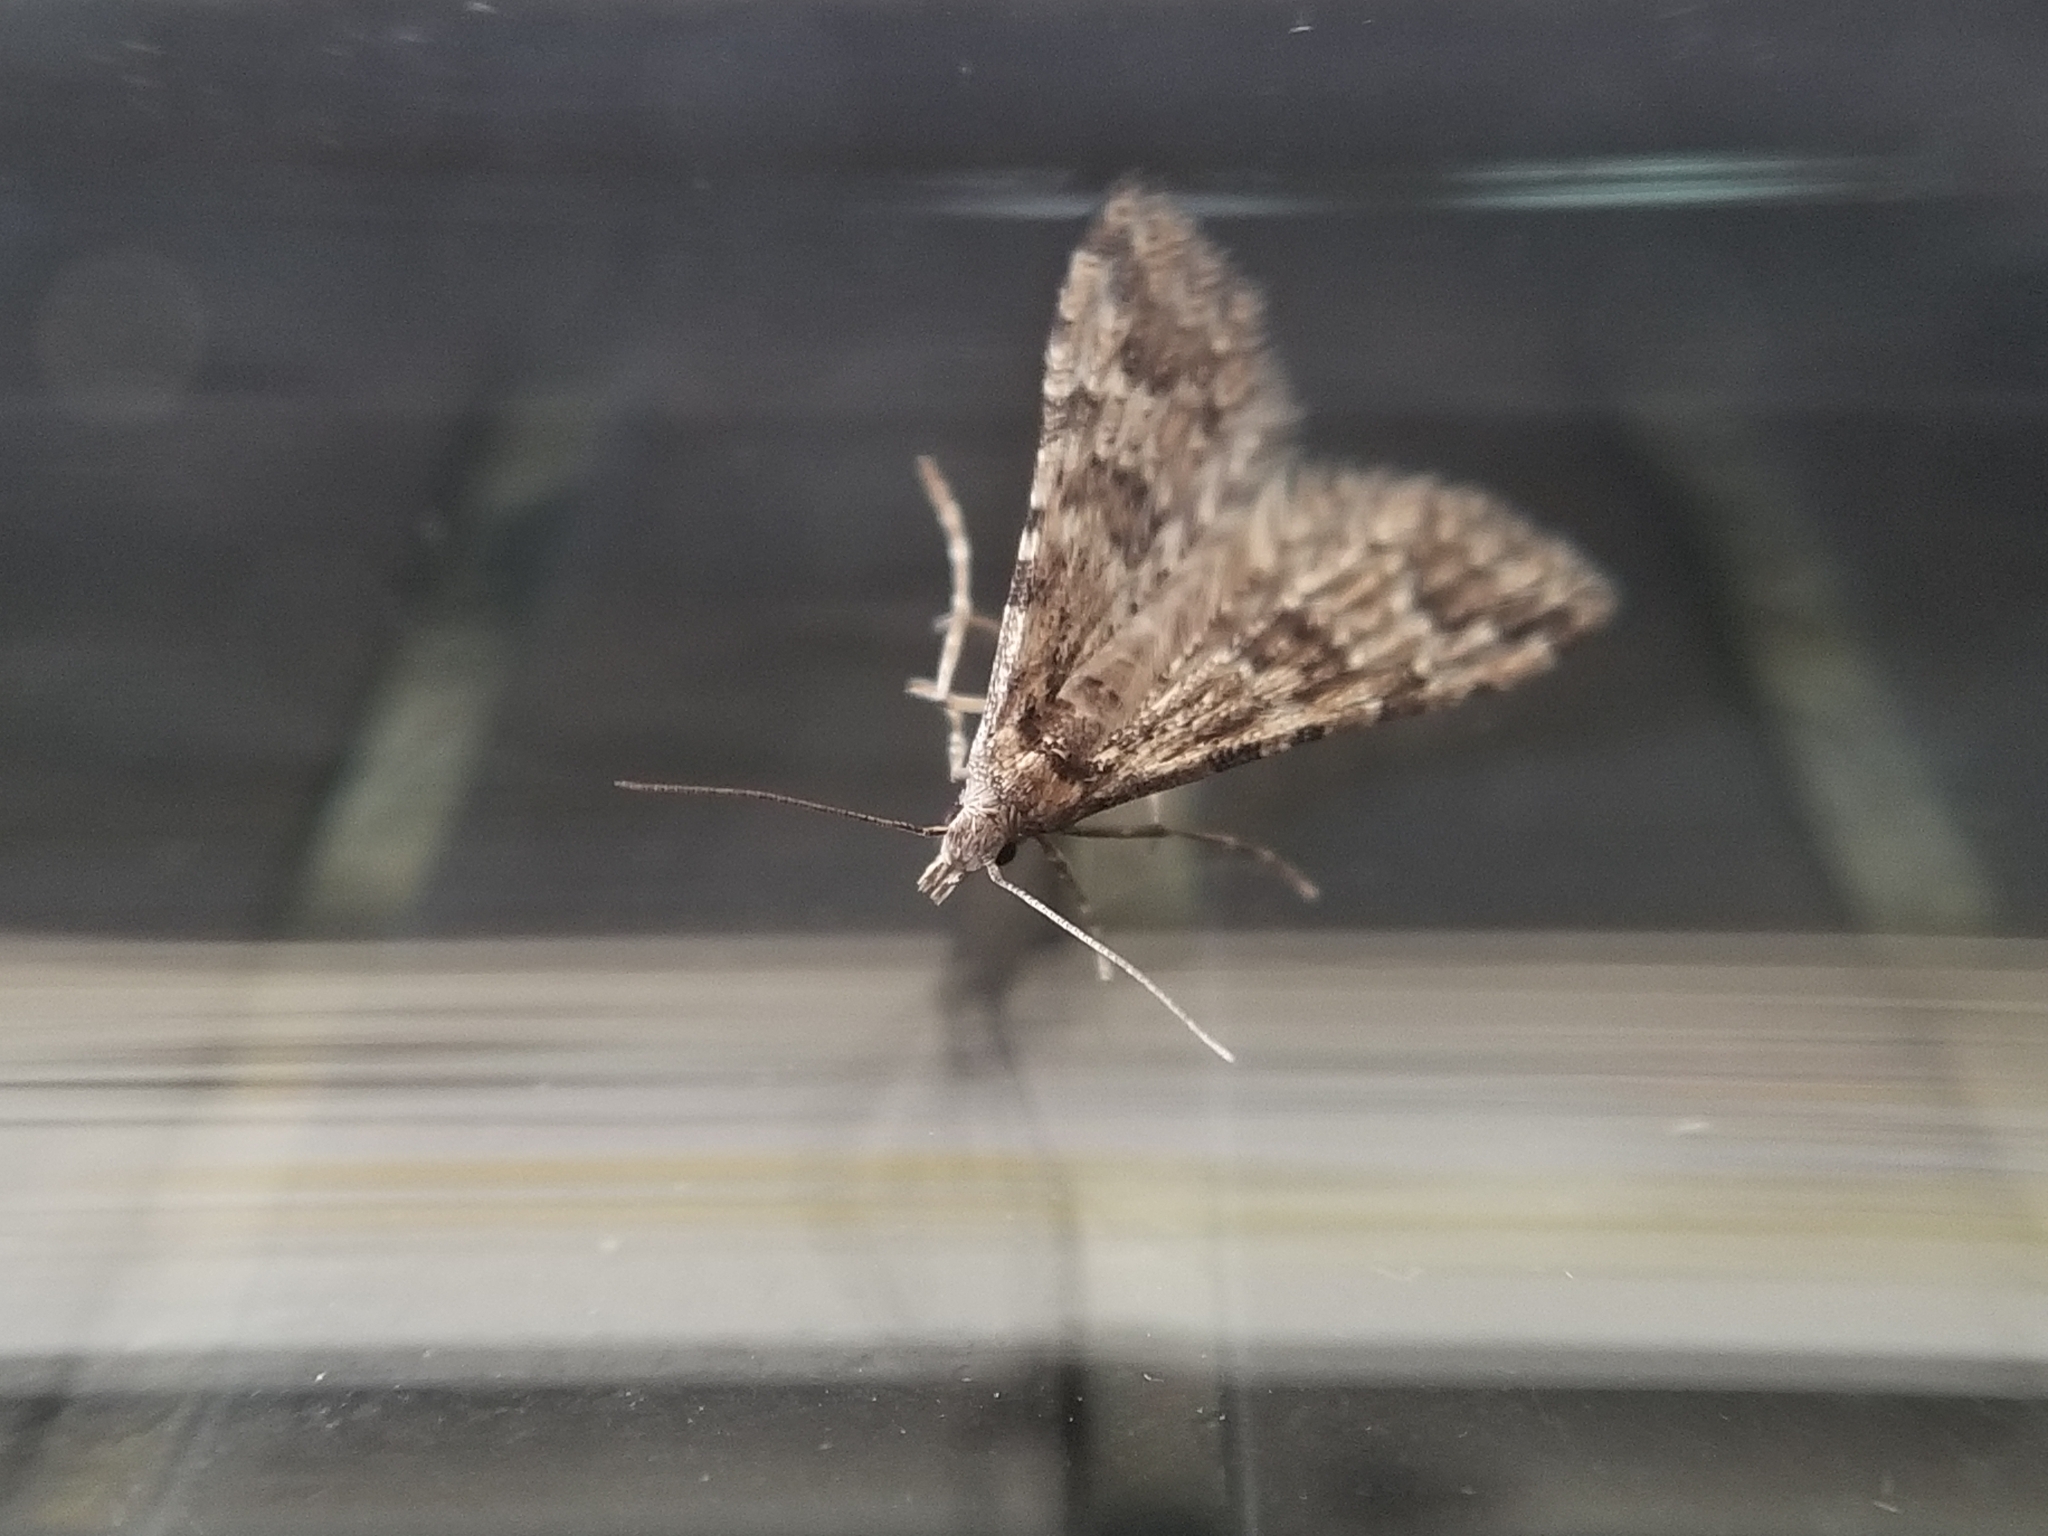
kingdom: Animalia
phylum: Arthropoda
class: Insecta
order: Lepidoptera
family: Alucitidae
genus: Alucita
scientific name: Alucita montana
